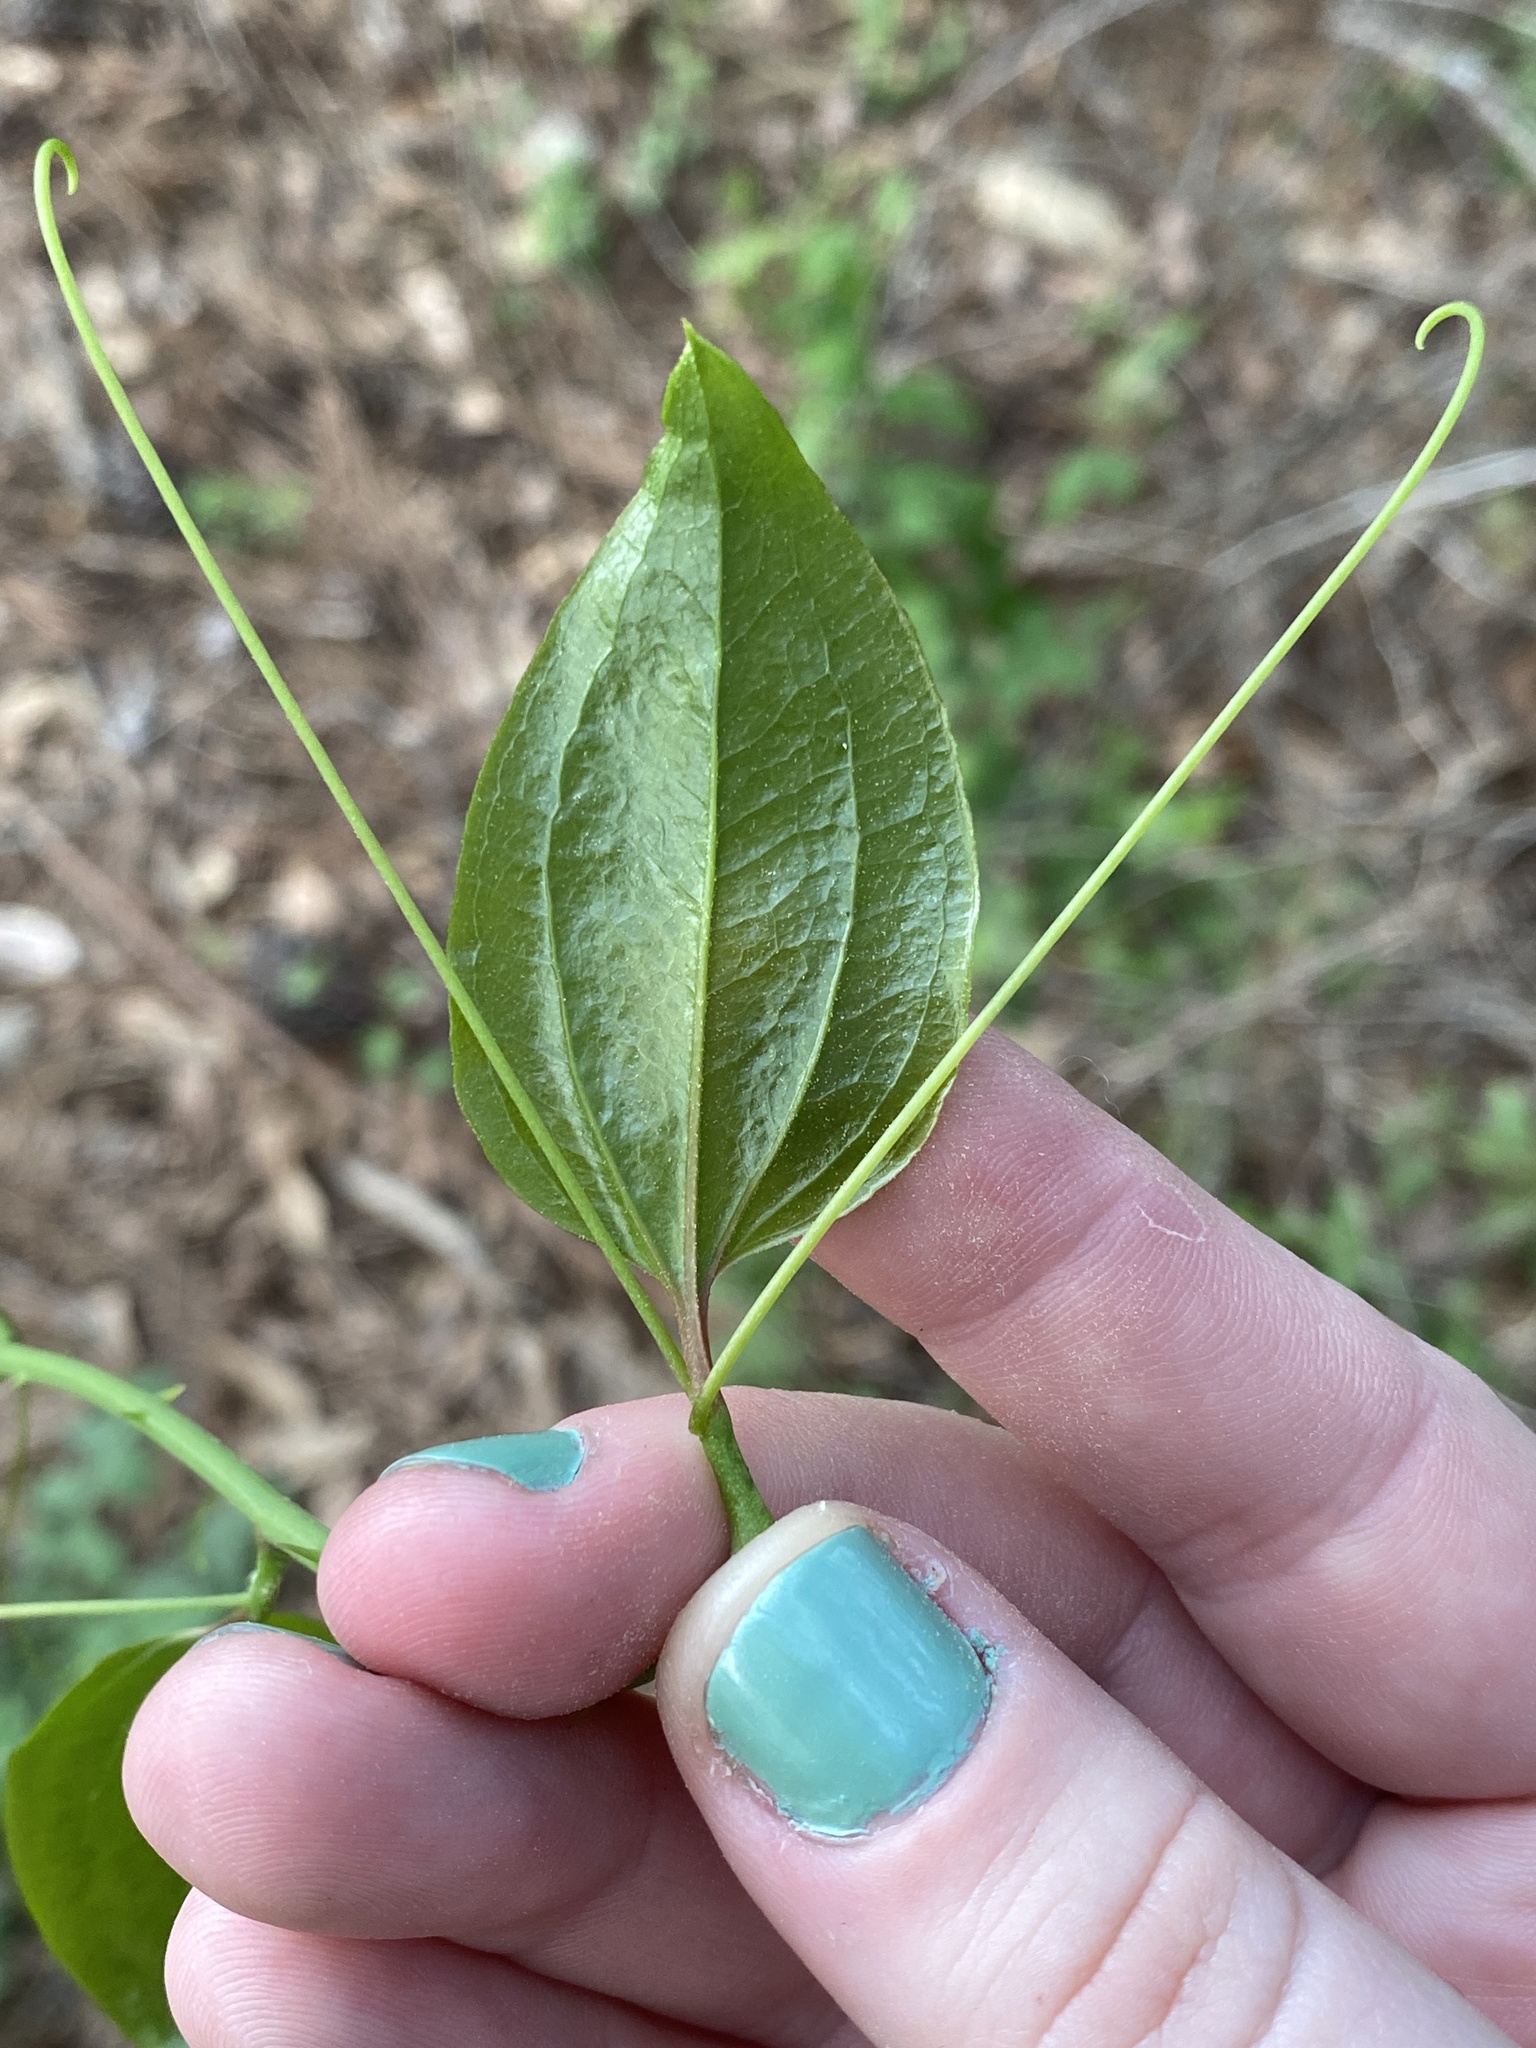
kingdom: Plantae
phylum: Tracheophyta
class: Liliopsida
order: Liliales
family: Smilacaceae
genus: Smilax
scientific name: Smilax rotundifolia
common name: Bullbriar
